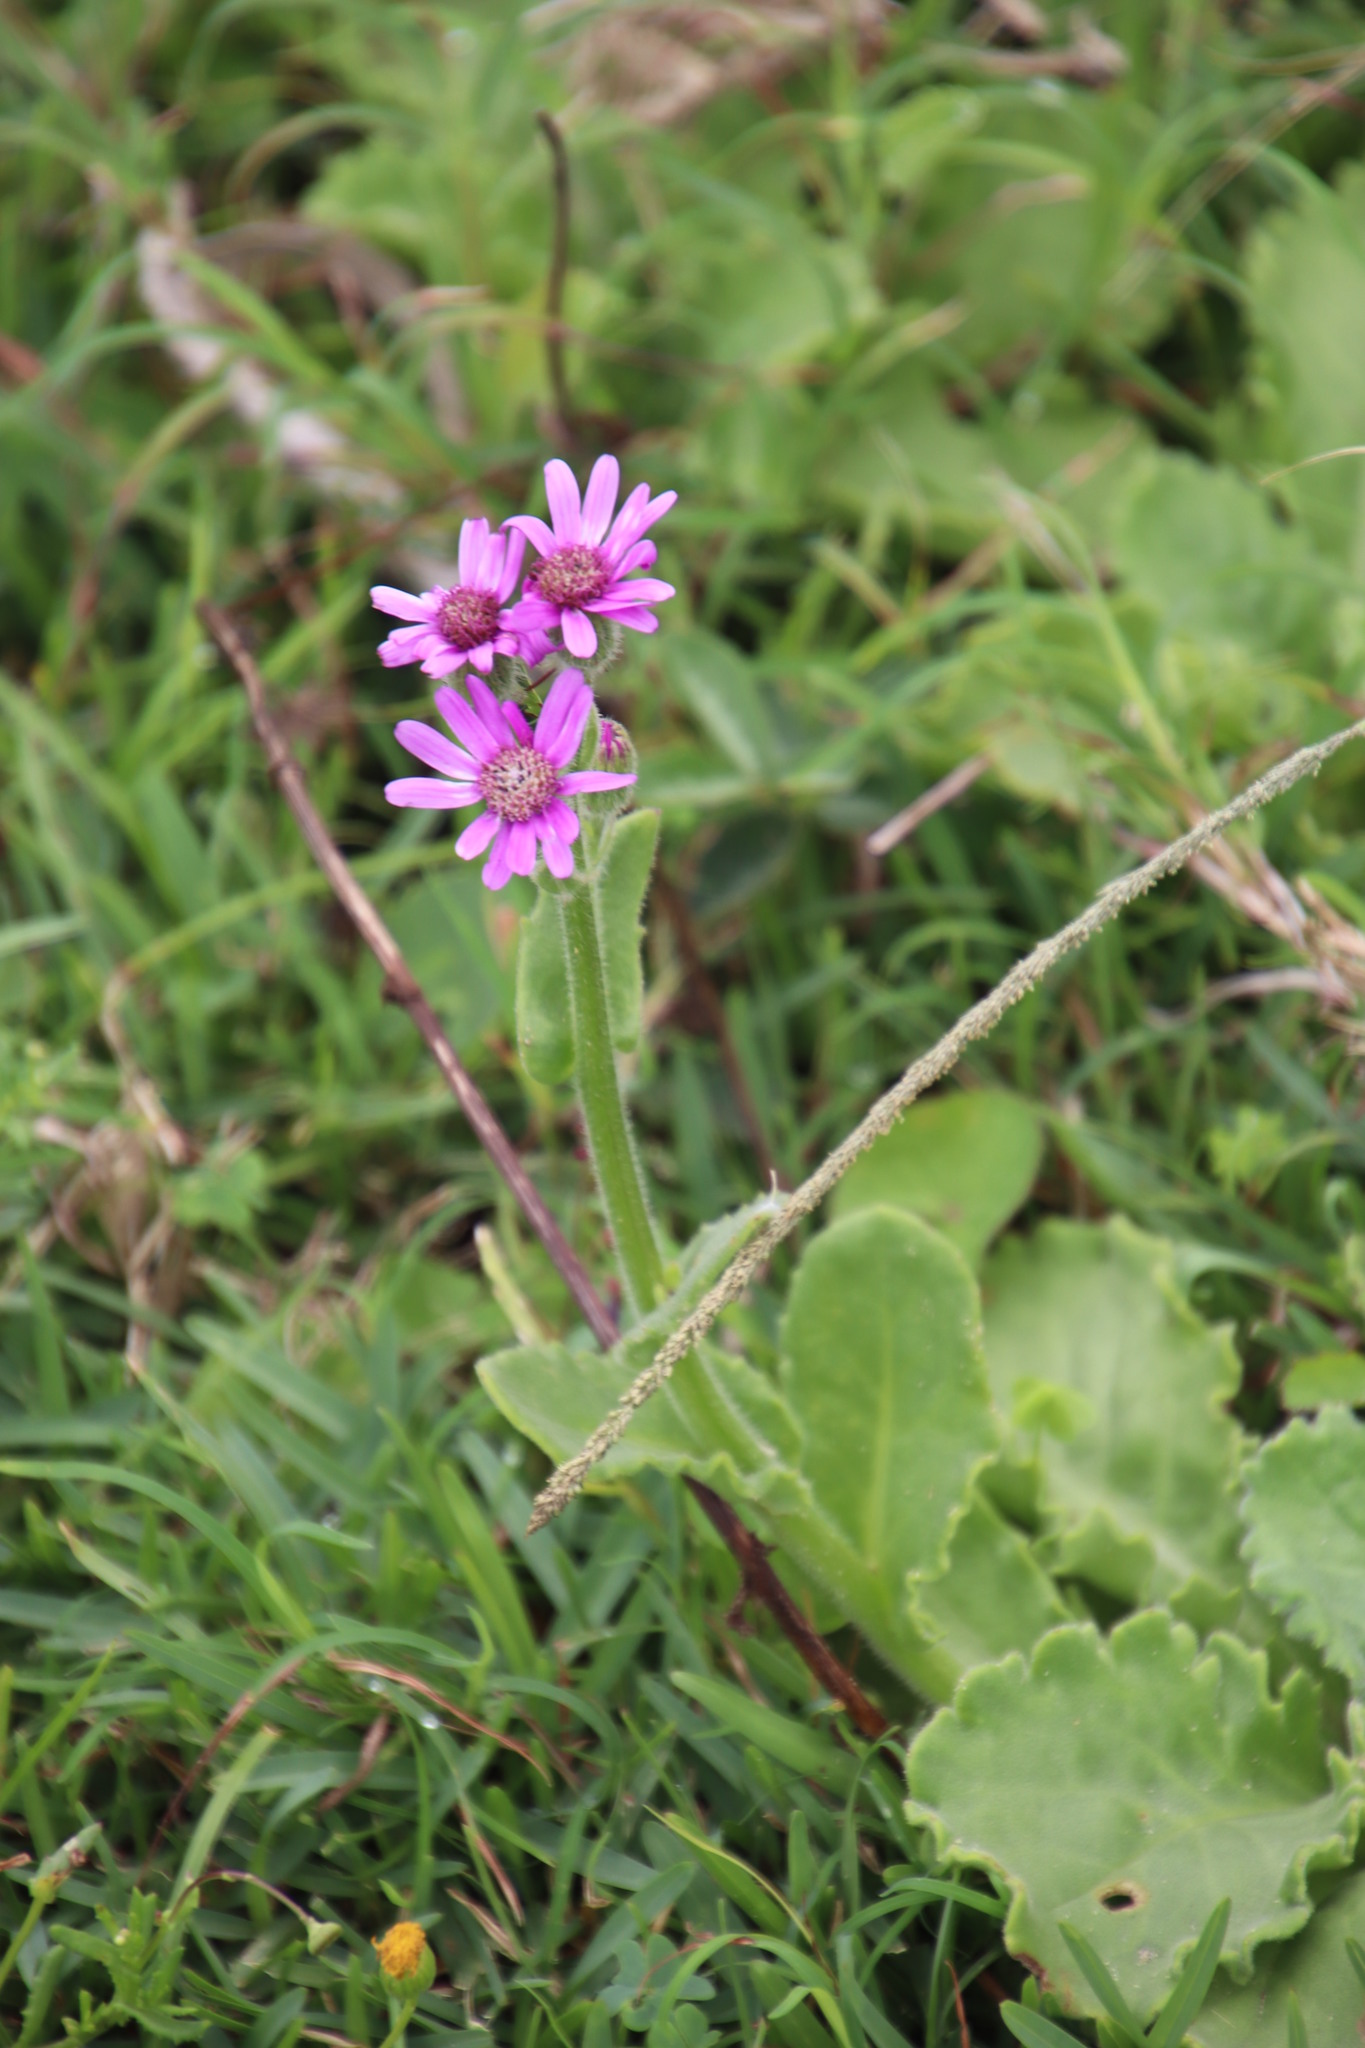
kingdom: Plantae
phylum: Tracheophyta
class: Magnoliopsida
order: Asterales
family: Asteraceae
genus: Senecio
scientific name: Senecio speciosus
